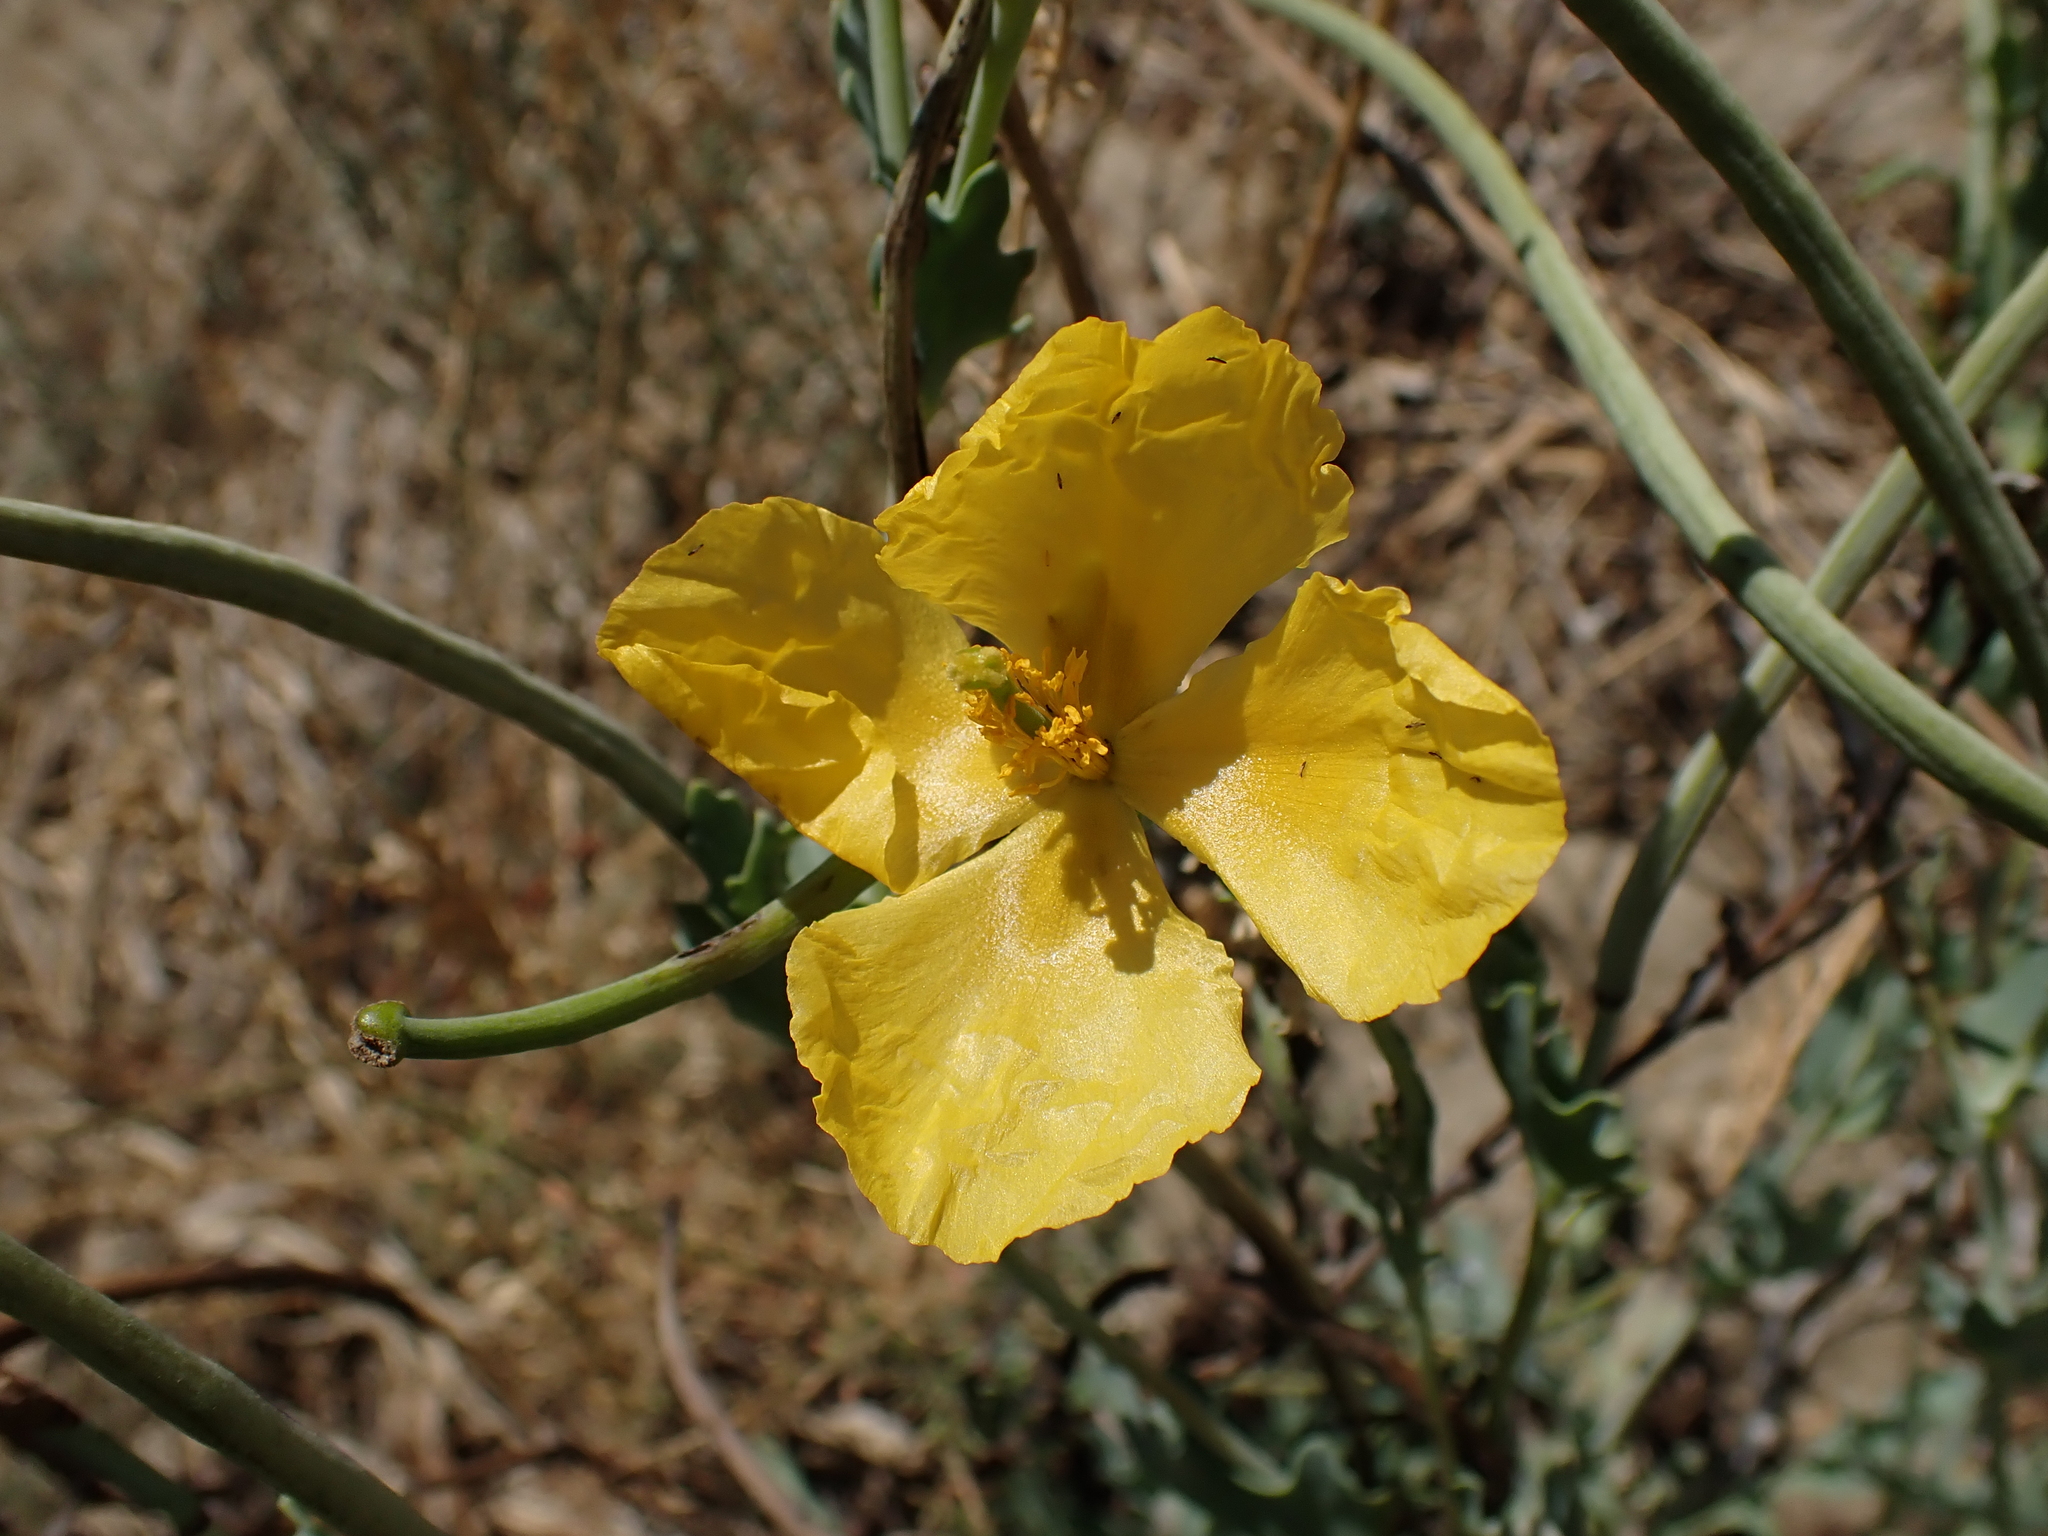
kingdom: Plantae
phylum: Tracheophyta
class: Magnoliopsida
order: Ranunculales
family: Papaveraceae
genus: Glaucium
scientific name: Glaucium flavum
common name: Yellow horned-poppy
